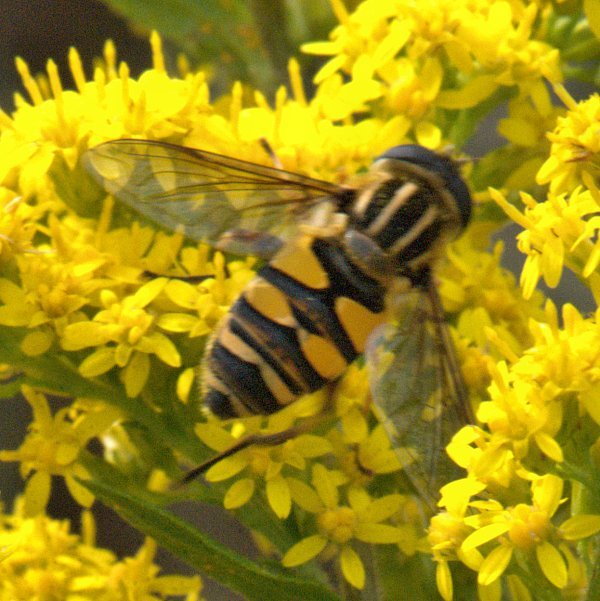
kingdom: Animalia
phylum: Arthropoda
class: Insecta
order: Diptera
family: Syrphidae
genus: Helophilus
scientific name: Helophilus fasciatus
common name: Narrow-headed marsh fly
